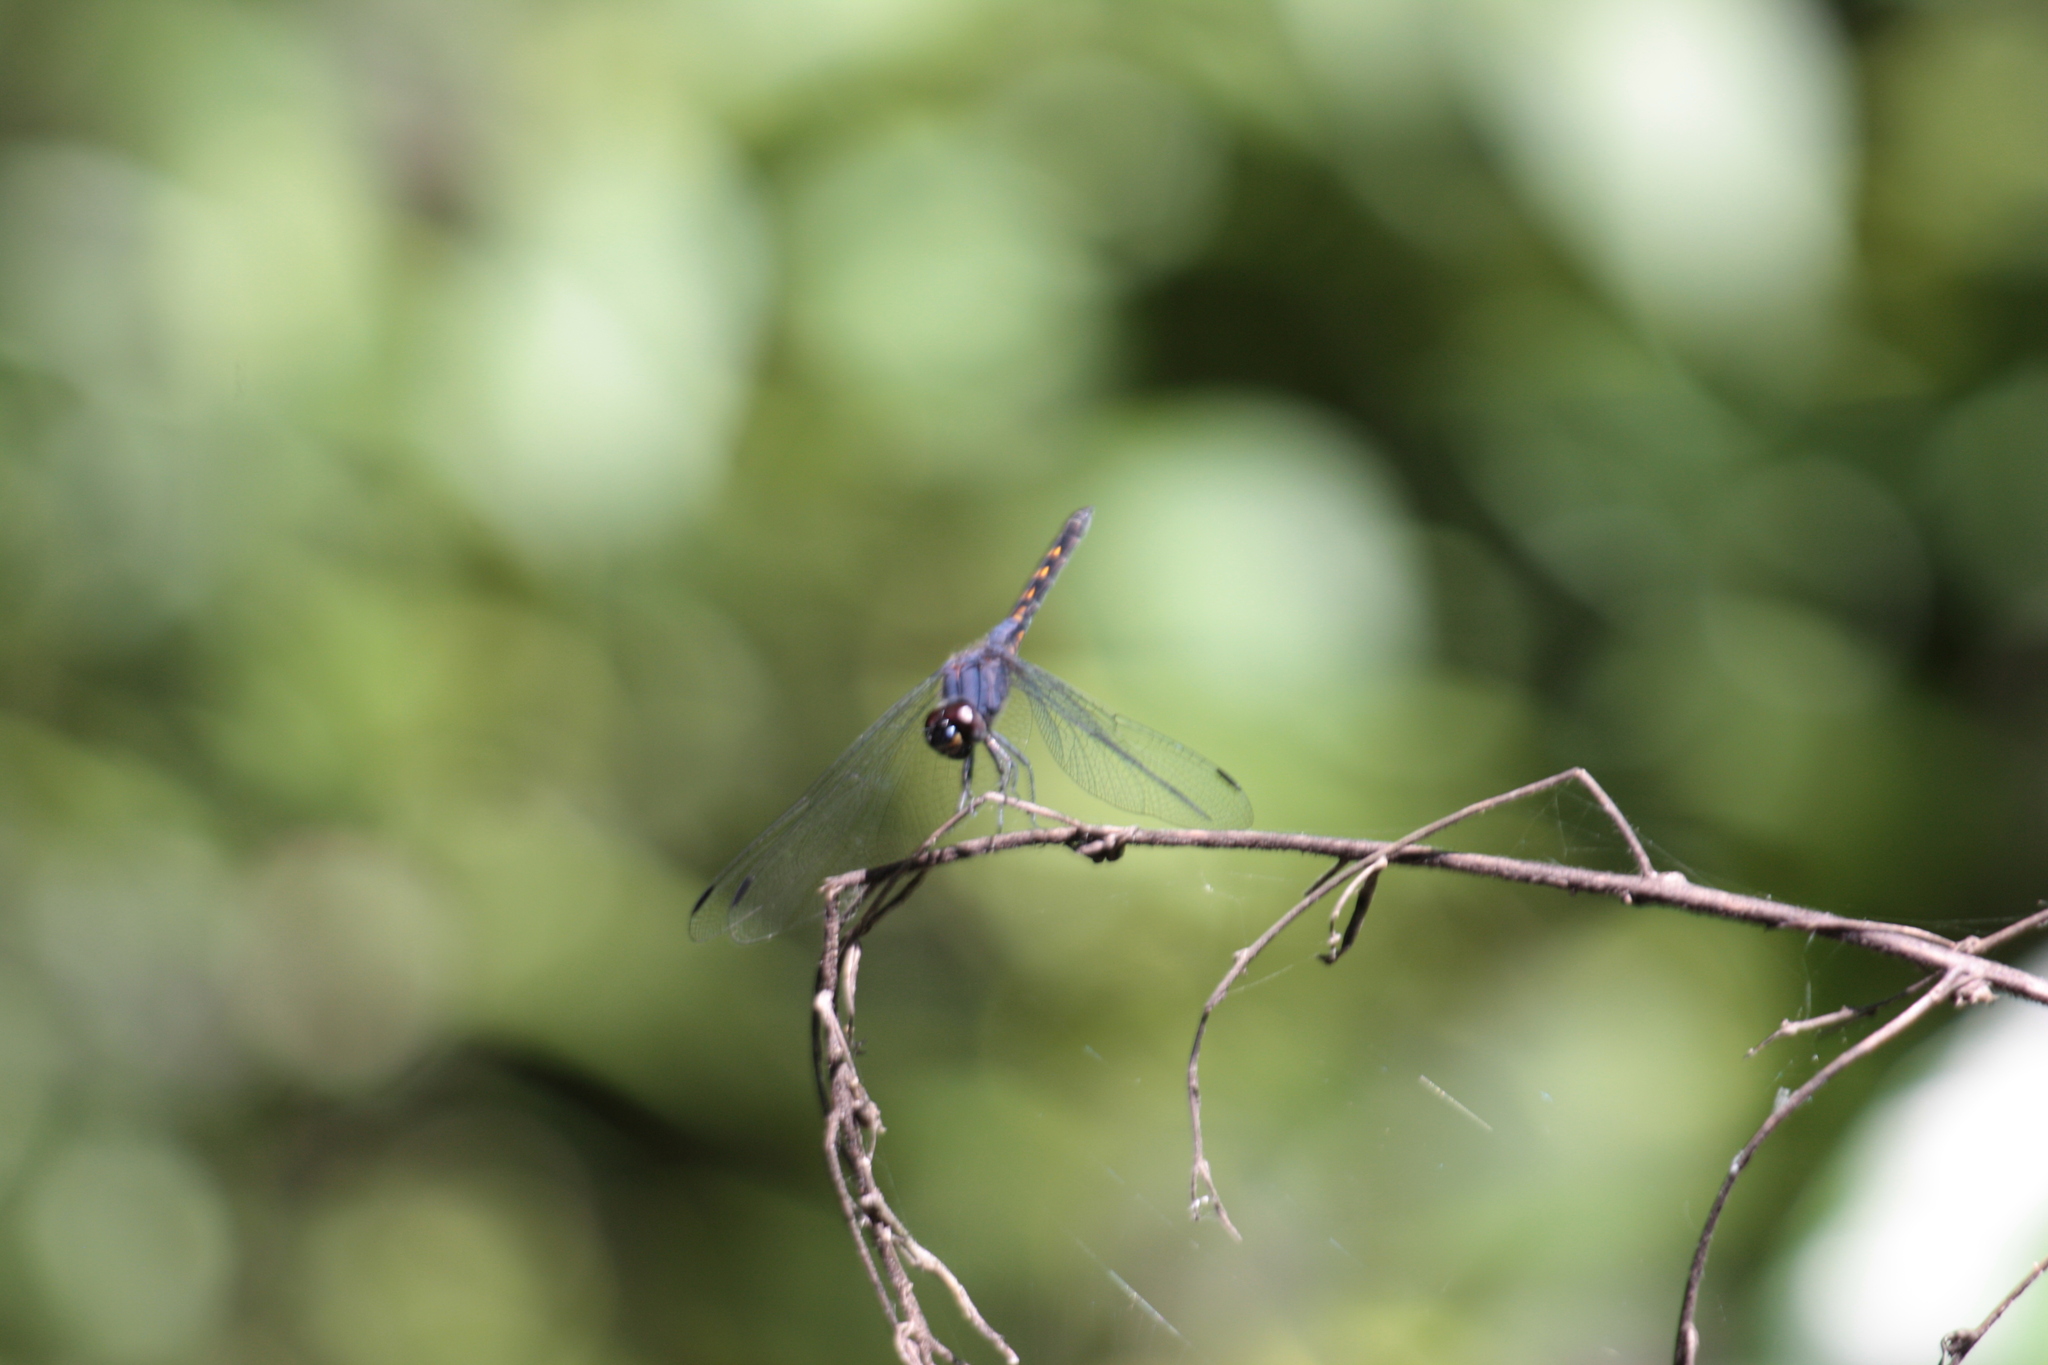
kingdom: Animalia
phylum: Arthropoda
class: Insecta
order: Odonata
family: Libellulidae
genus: Trithemis
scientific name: Trithemis festiva
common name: Indigo dropwing
